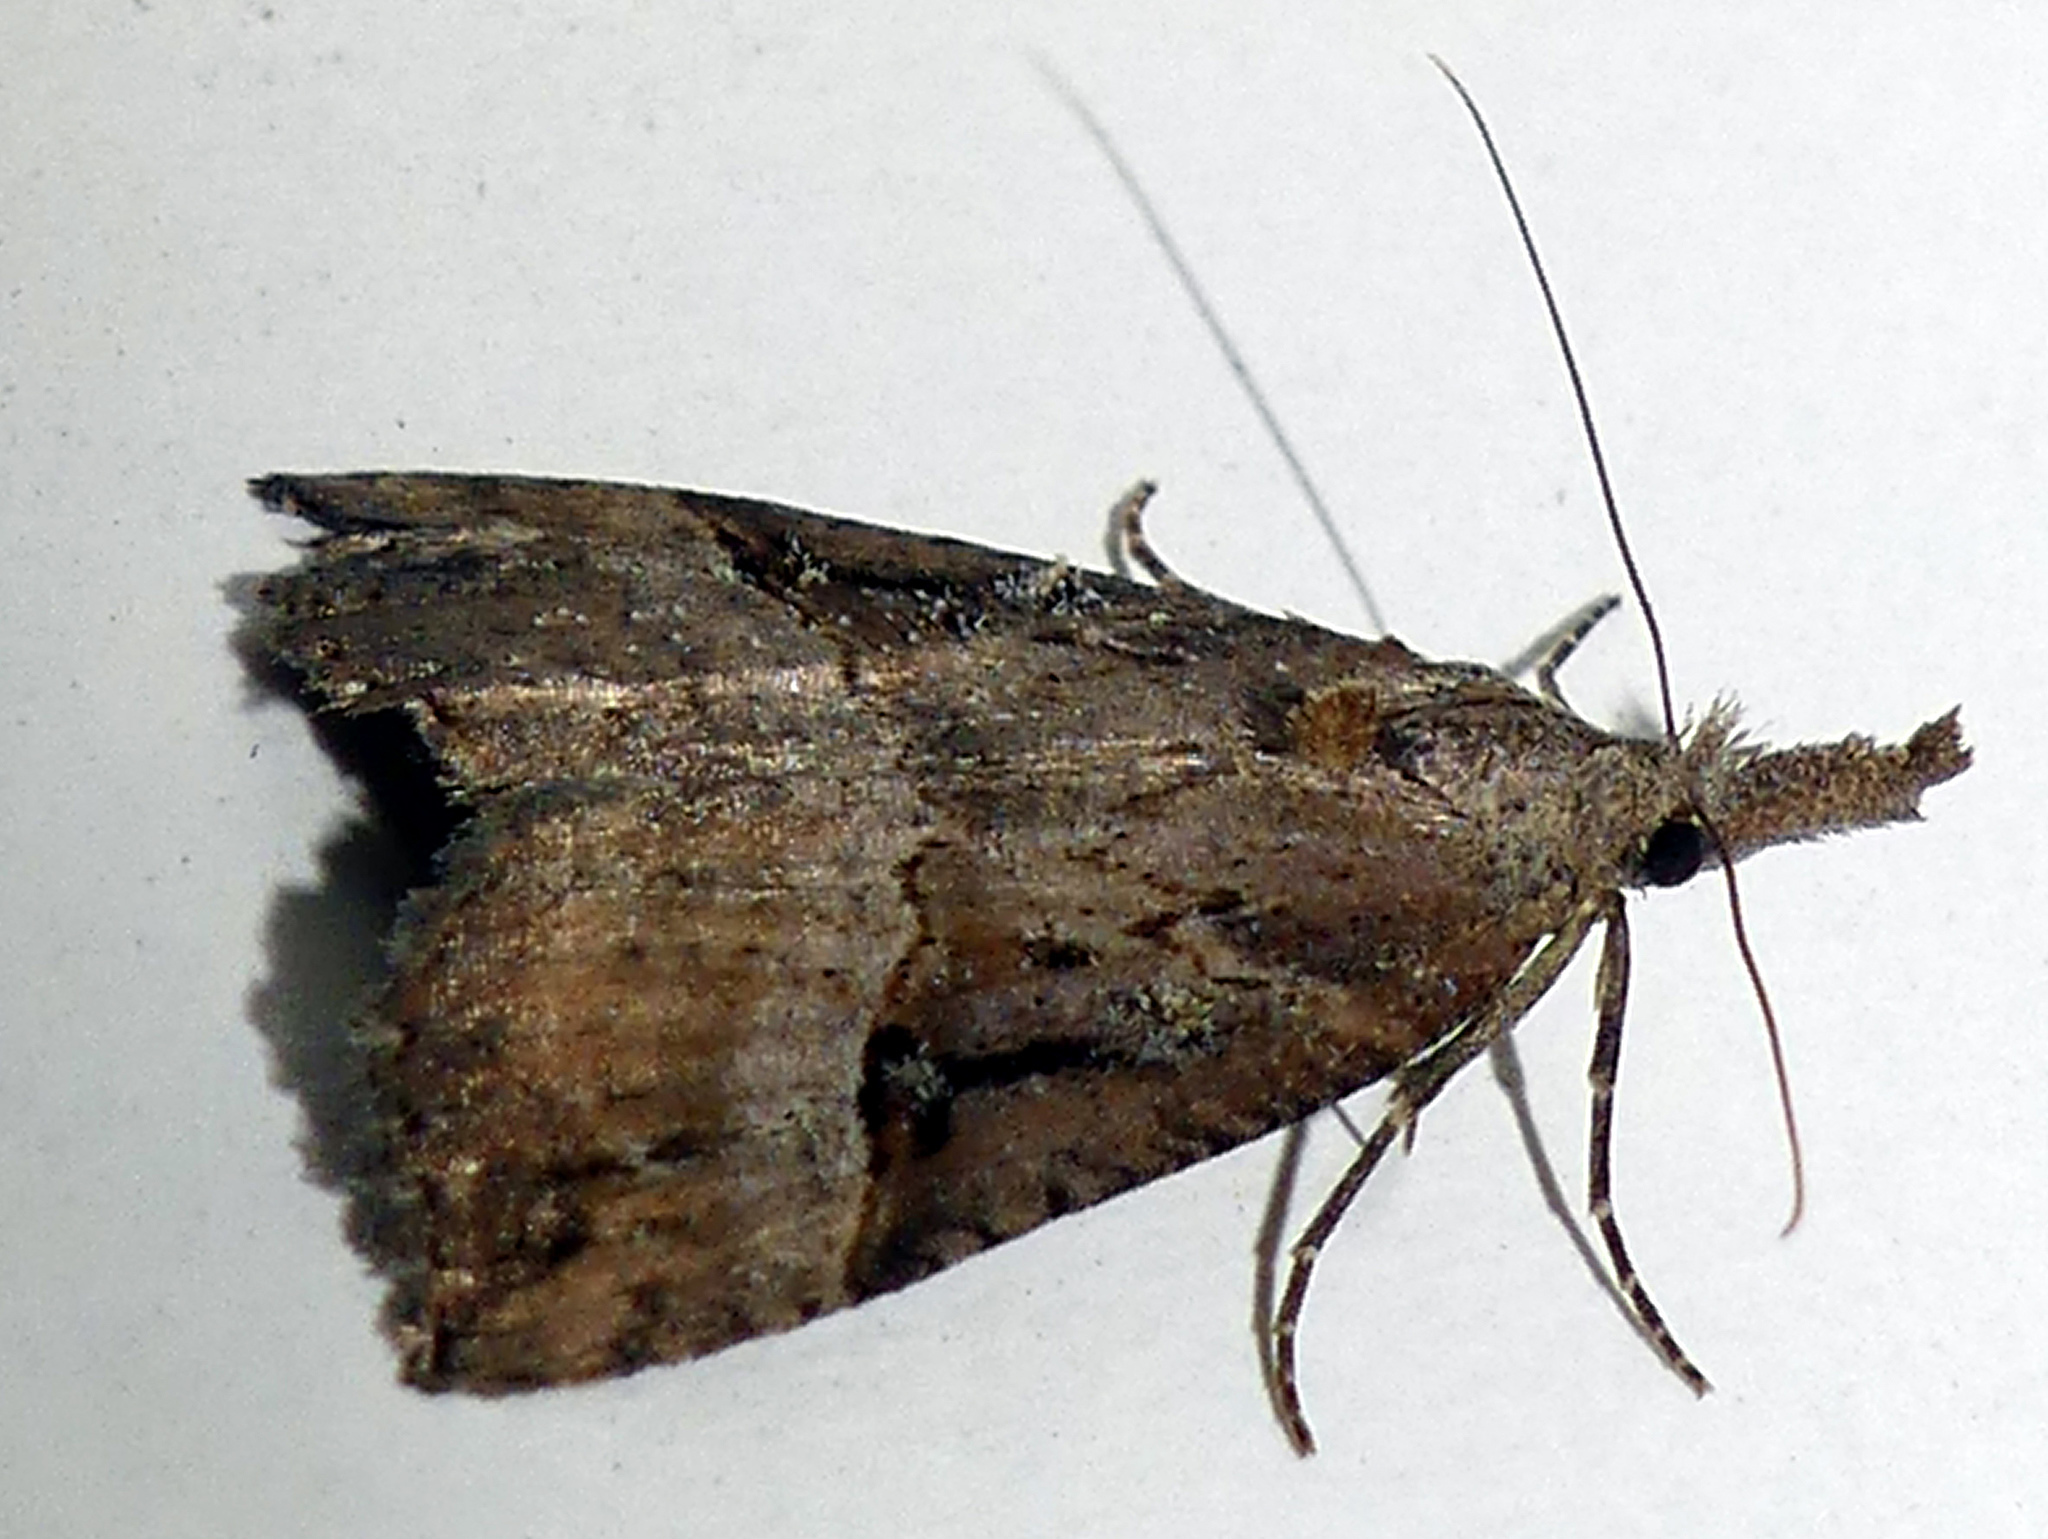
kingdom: Animalia
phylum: Arthropoda
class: Insecta
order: Lepidoptera
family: Erebidae
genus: Hypena
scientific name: Hypena rostralis
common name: Buttoned snout
